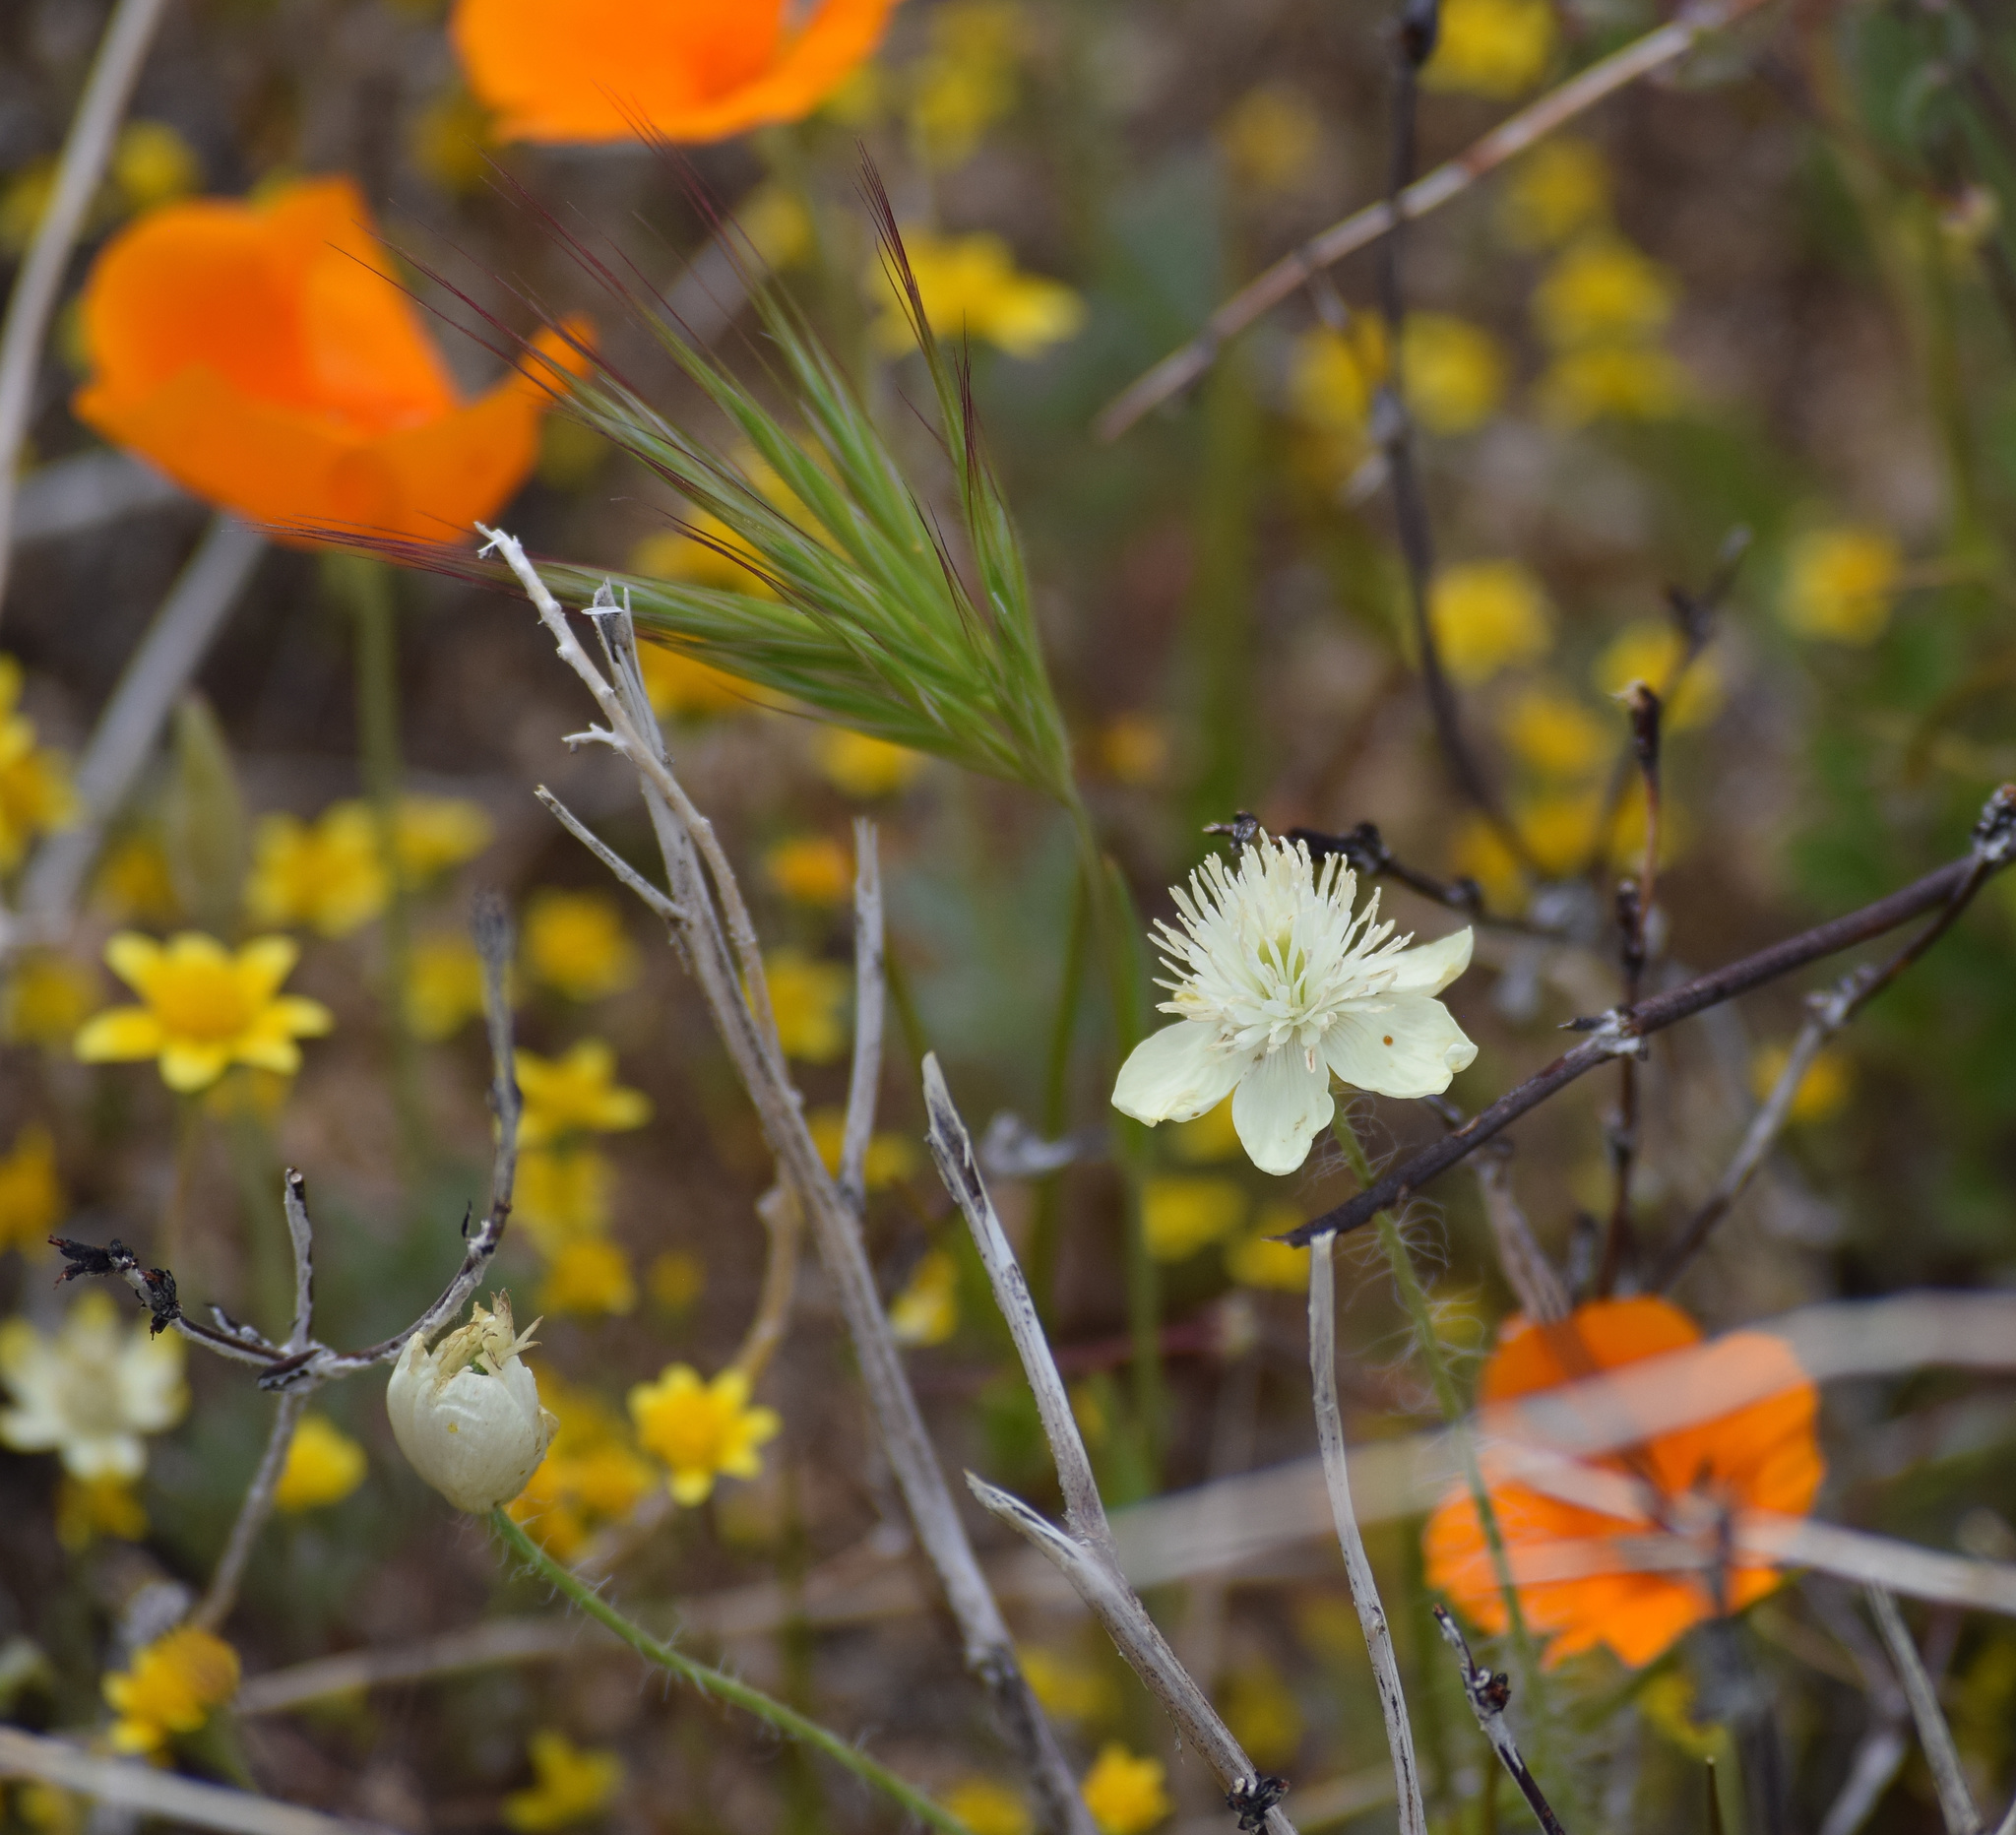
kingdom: Plantae
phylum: Tracheophyta
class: Magnoliopsida
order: Ranunculales
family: Papaveraceae
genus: Platystemon
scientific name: Platystemon californicus
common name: Cream-cups
